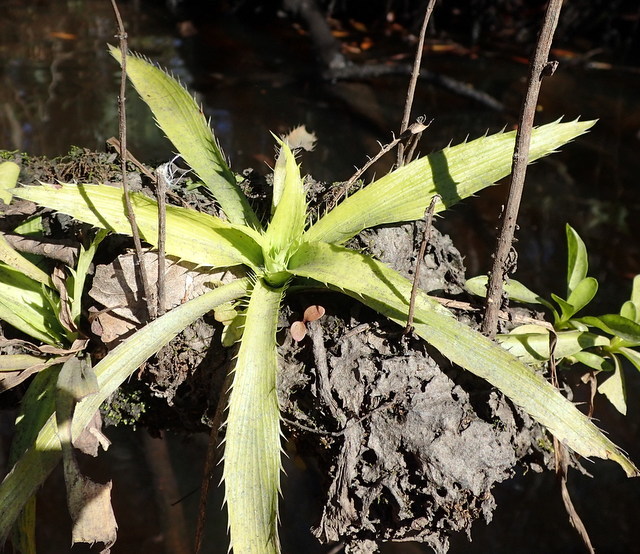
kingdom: Plantae
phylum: Tracheophyta
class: Magnoliopsida
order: Apiales
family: Apiaceae
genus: Eryngium
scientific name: Eryngium yuccifolium
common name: Button eryngo
